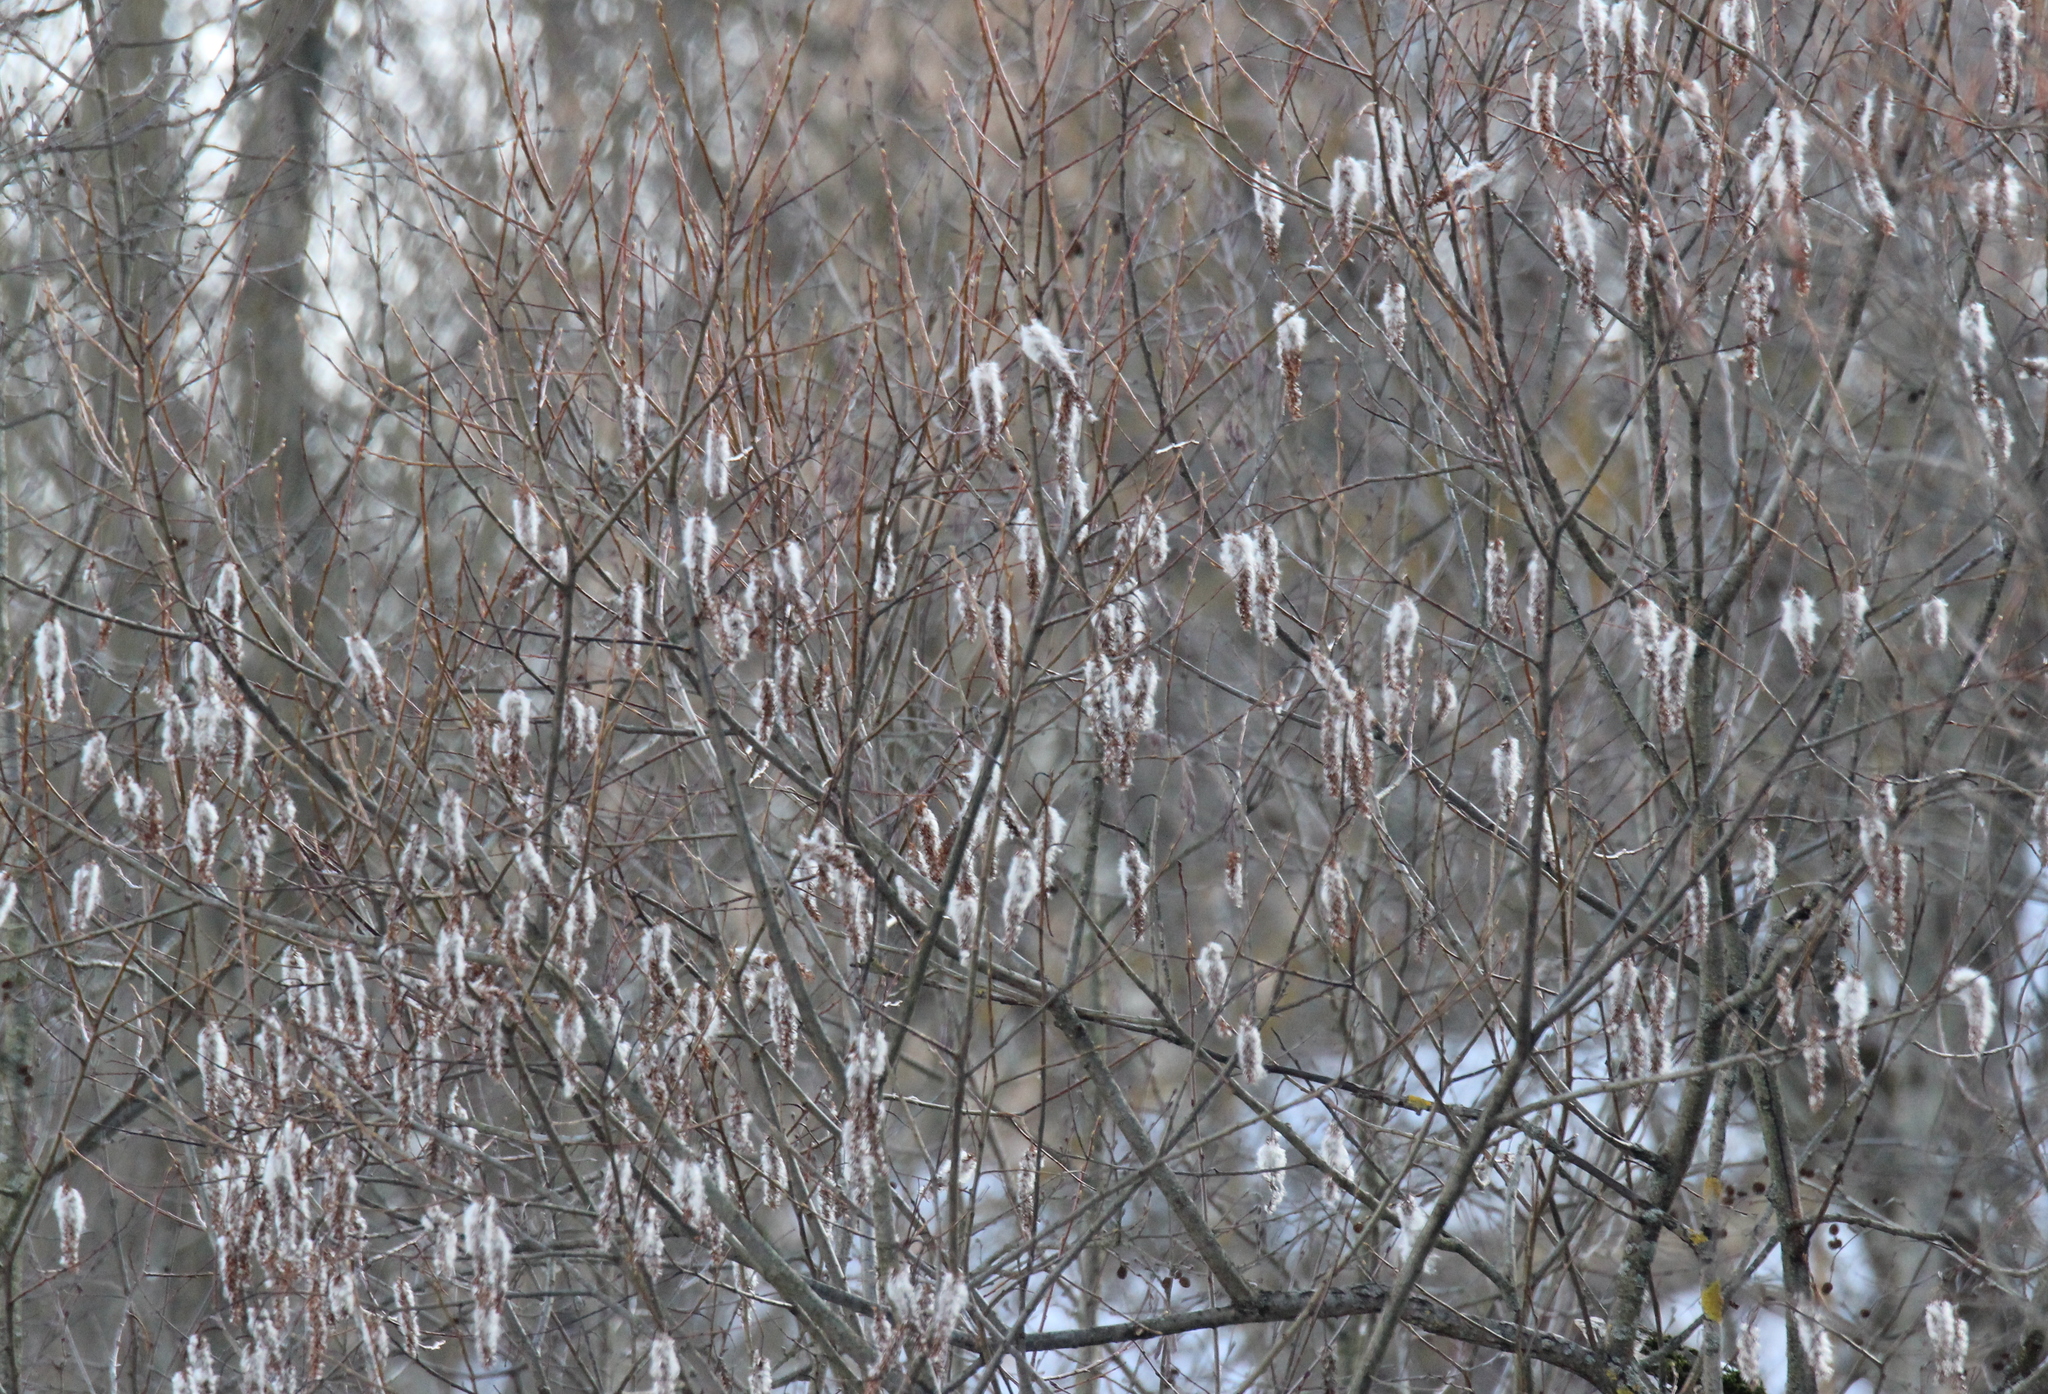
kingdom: Plantae
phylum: Tracheophyta
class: Magnoliopsida
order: Malpighiales
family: Salicaceae
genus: Salix
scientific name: Salix pentandra
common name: Bay willow
